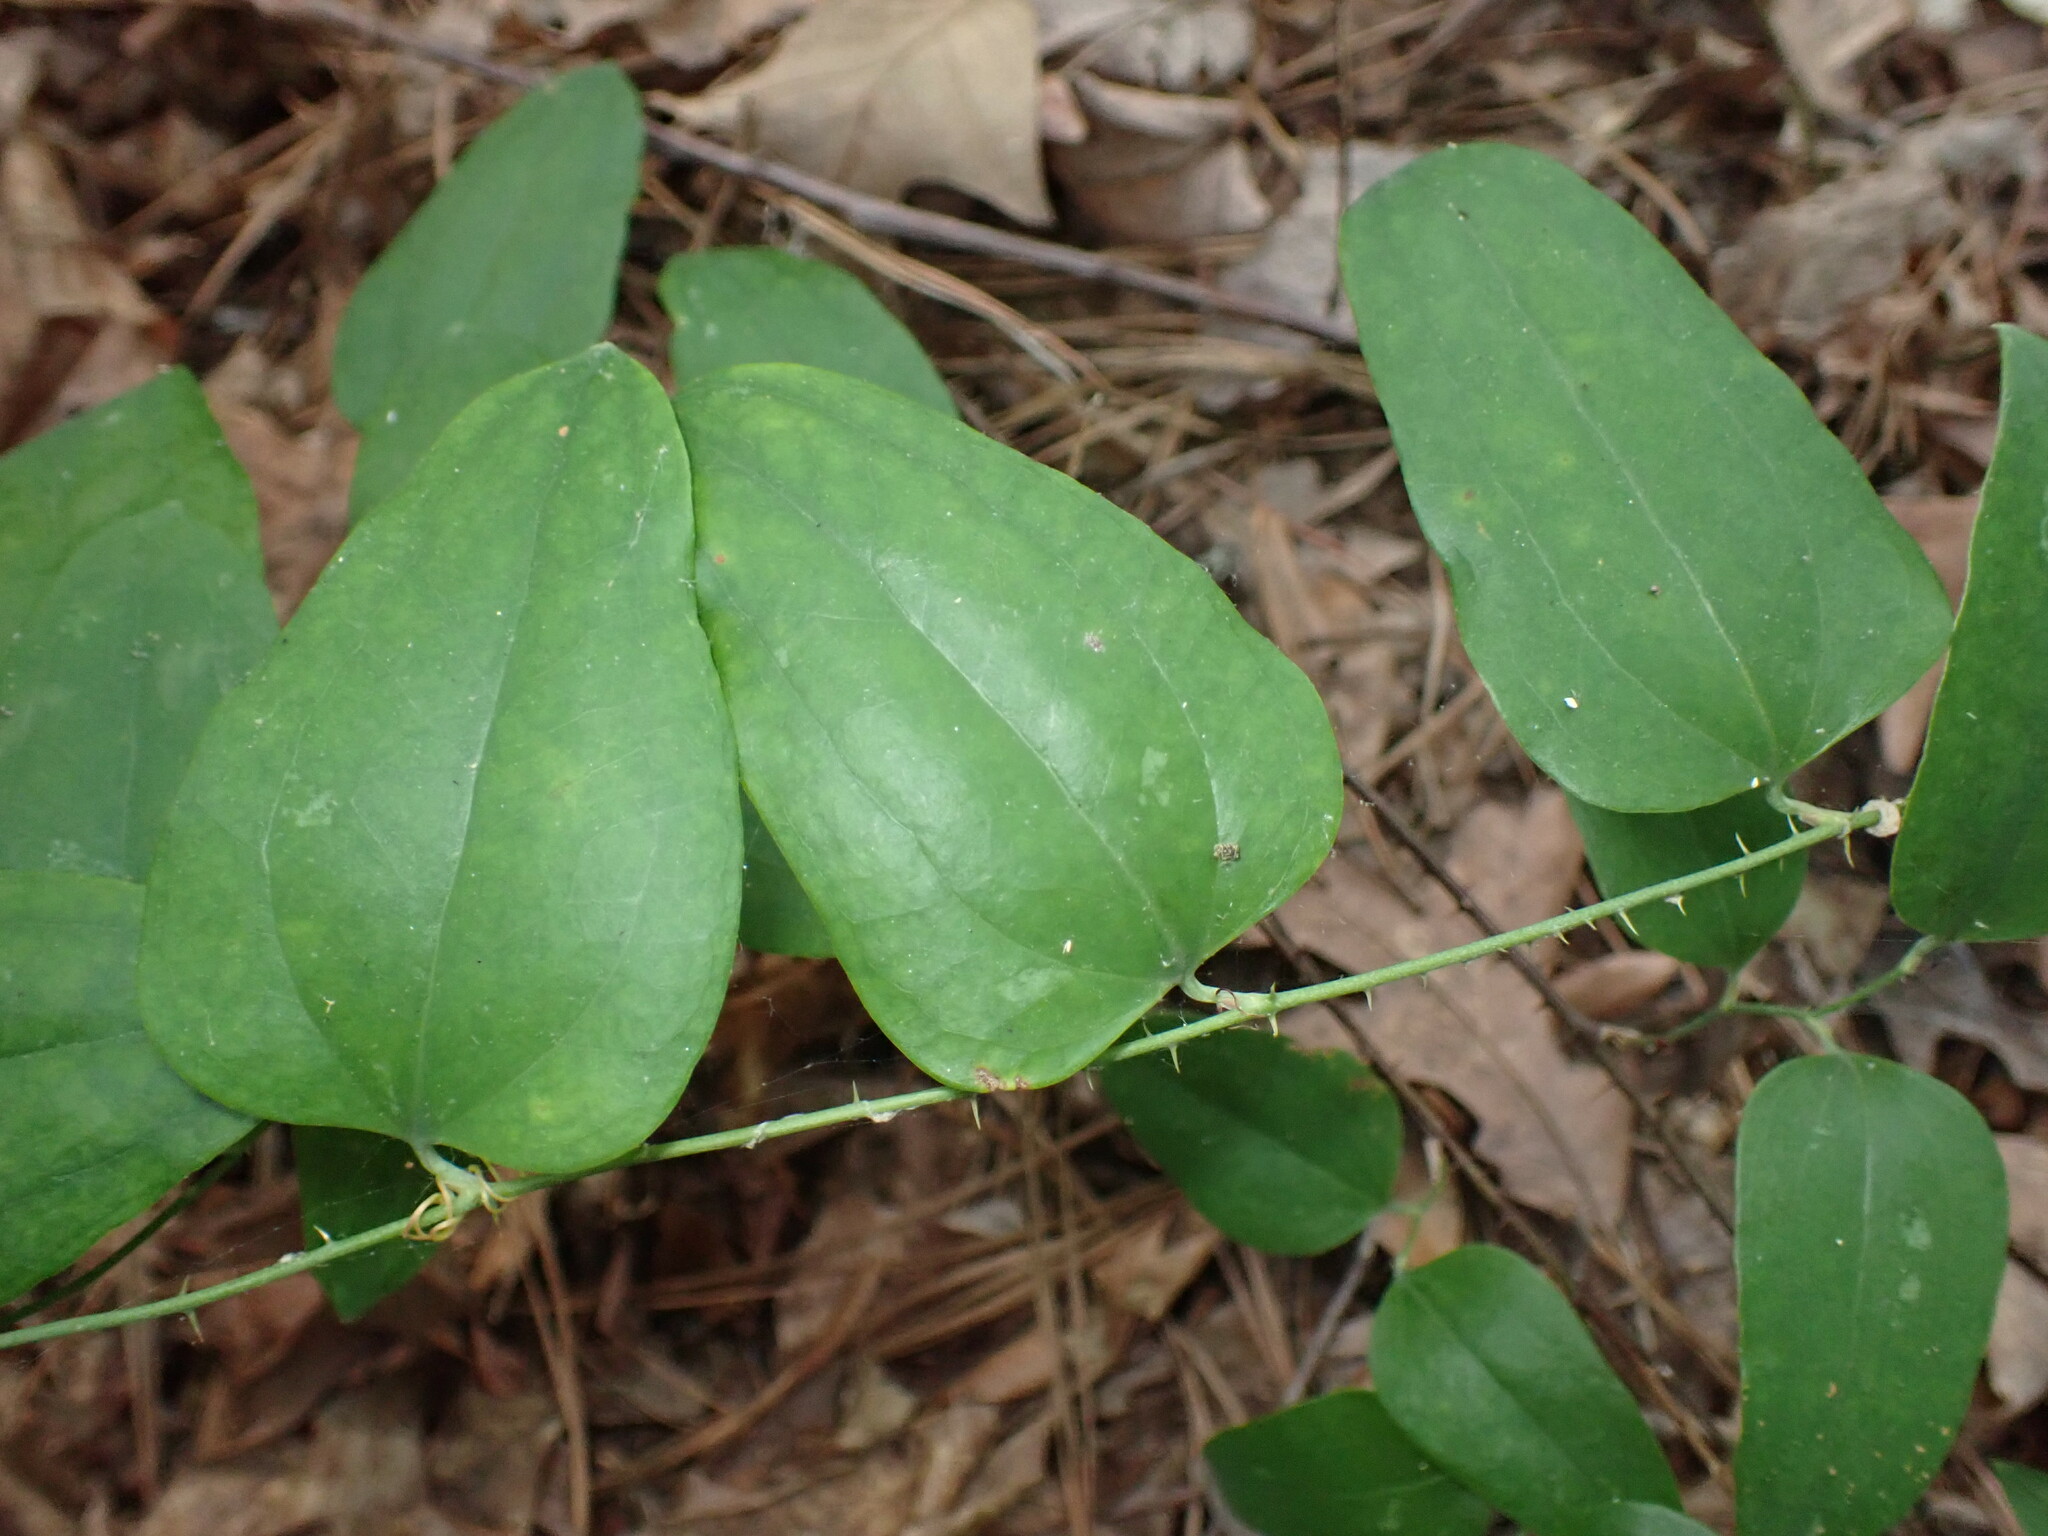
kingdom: Plantae
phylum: Tracheophyta
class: Liliopsida
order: Liliales
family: Smilacaceae
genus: Smilax
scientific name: Smilax glauca
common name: Cat greenbrier
